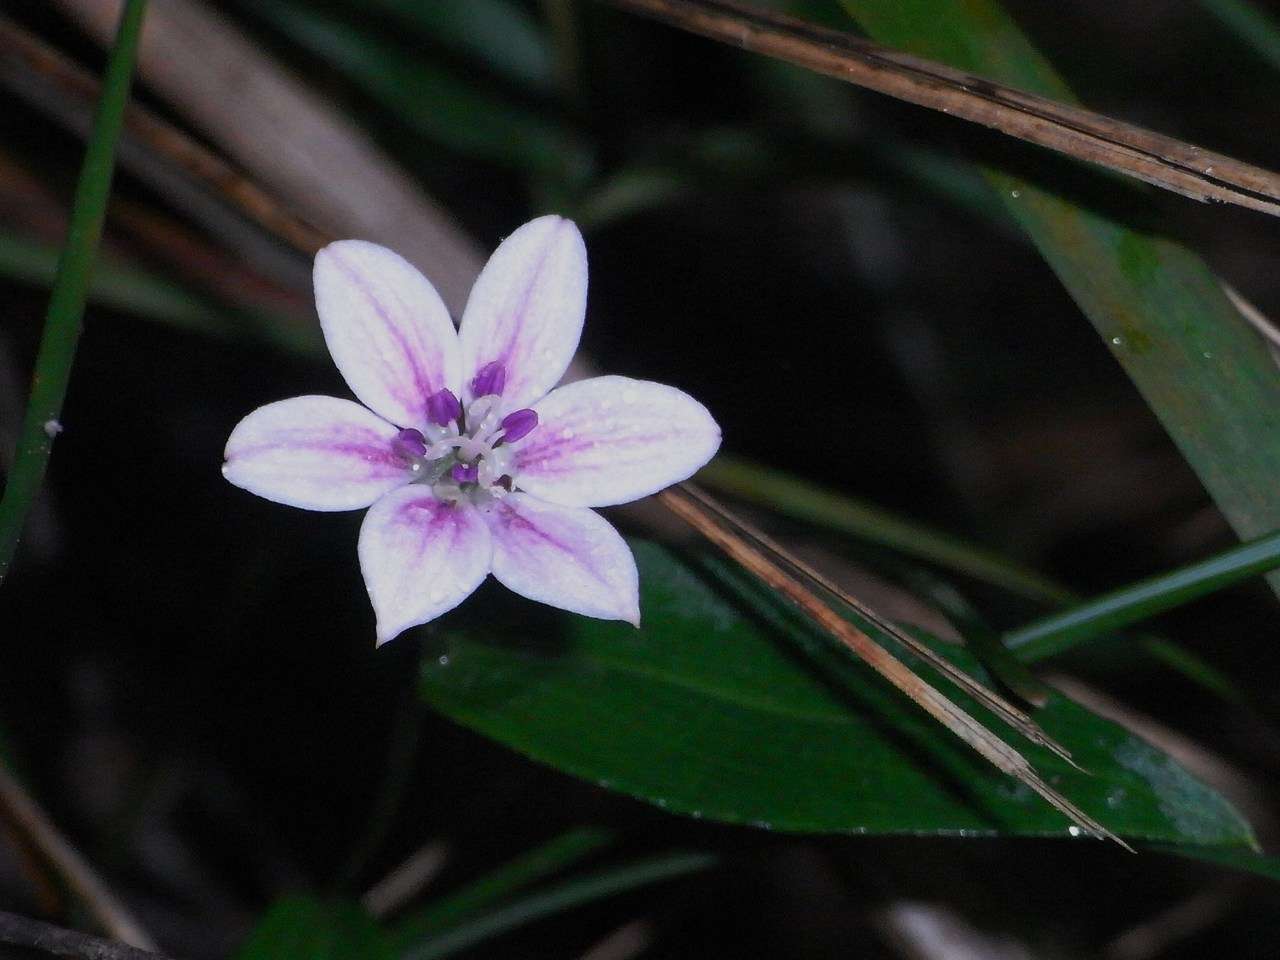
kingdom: Plantae
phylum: Tracheophyta
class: Liliopsida
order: Liliales
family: Colchicaceae
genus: Schelhammera
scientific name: Schelhammera undulata
